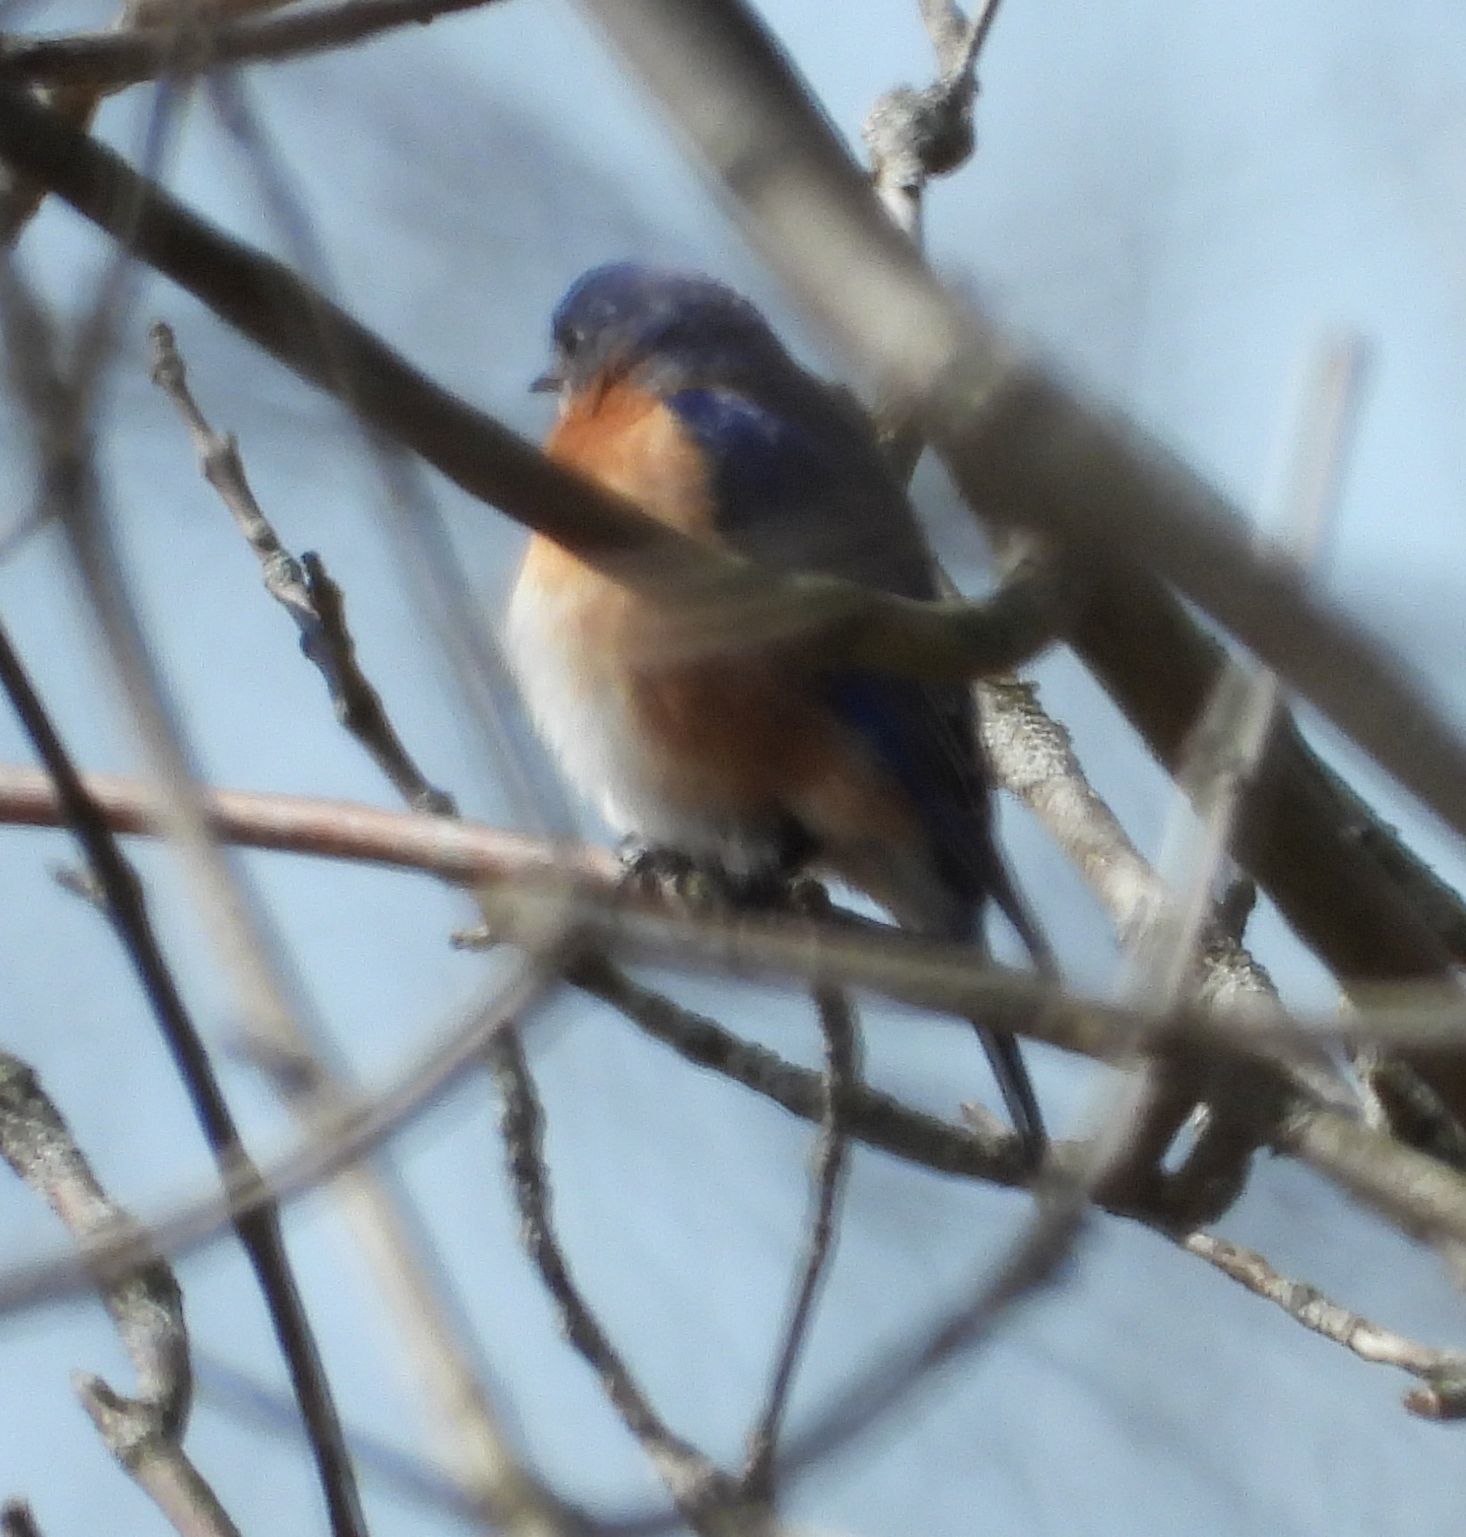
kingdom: Animalia
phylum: Chordata
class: Aves
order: Passeriformes
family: Turdidae
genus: Sialia
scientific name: Sialia sialis
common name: Eastern bluebird
